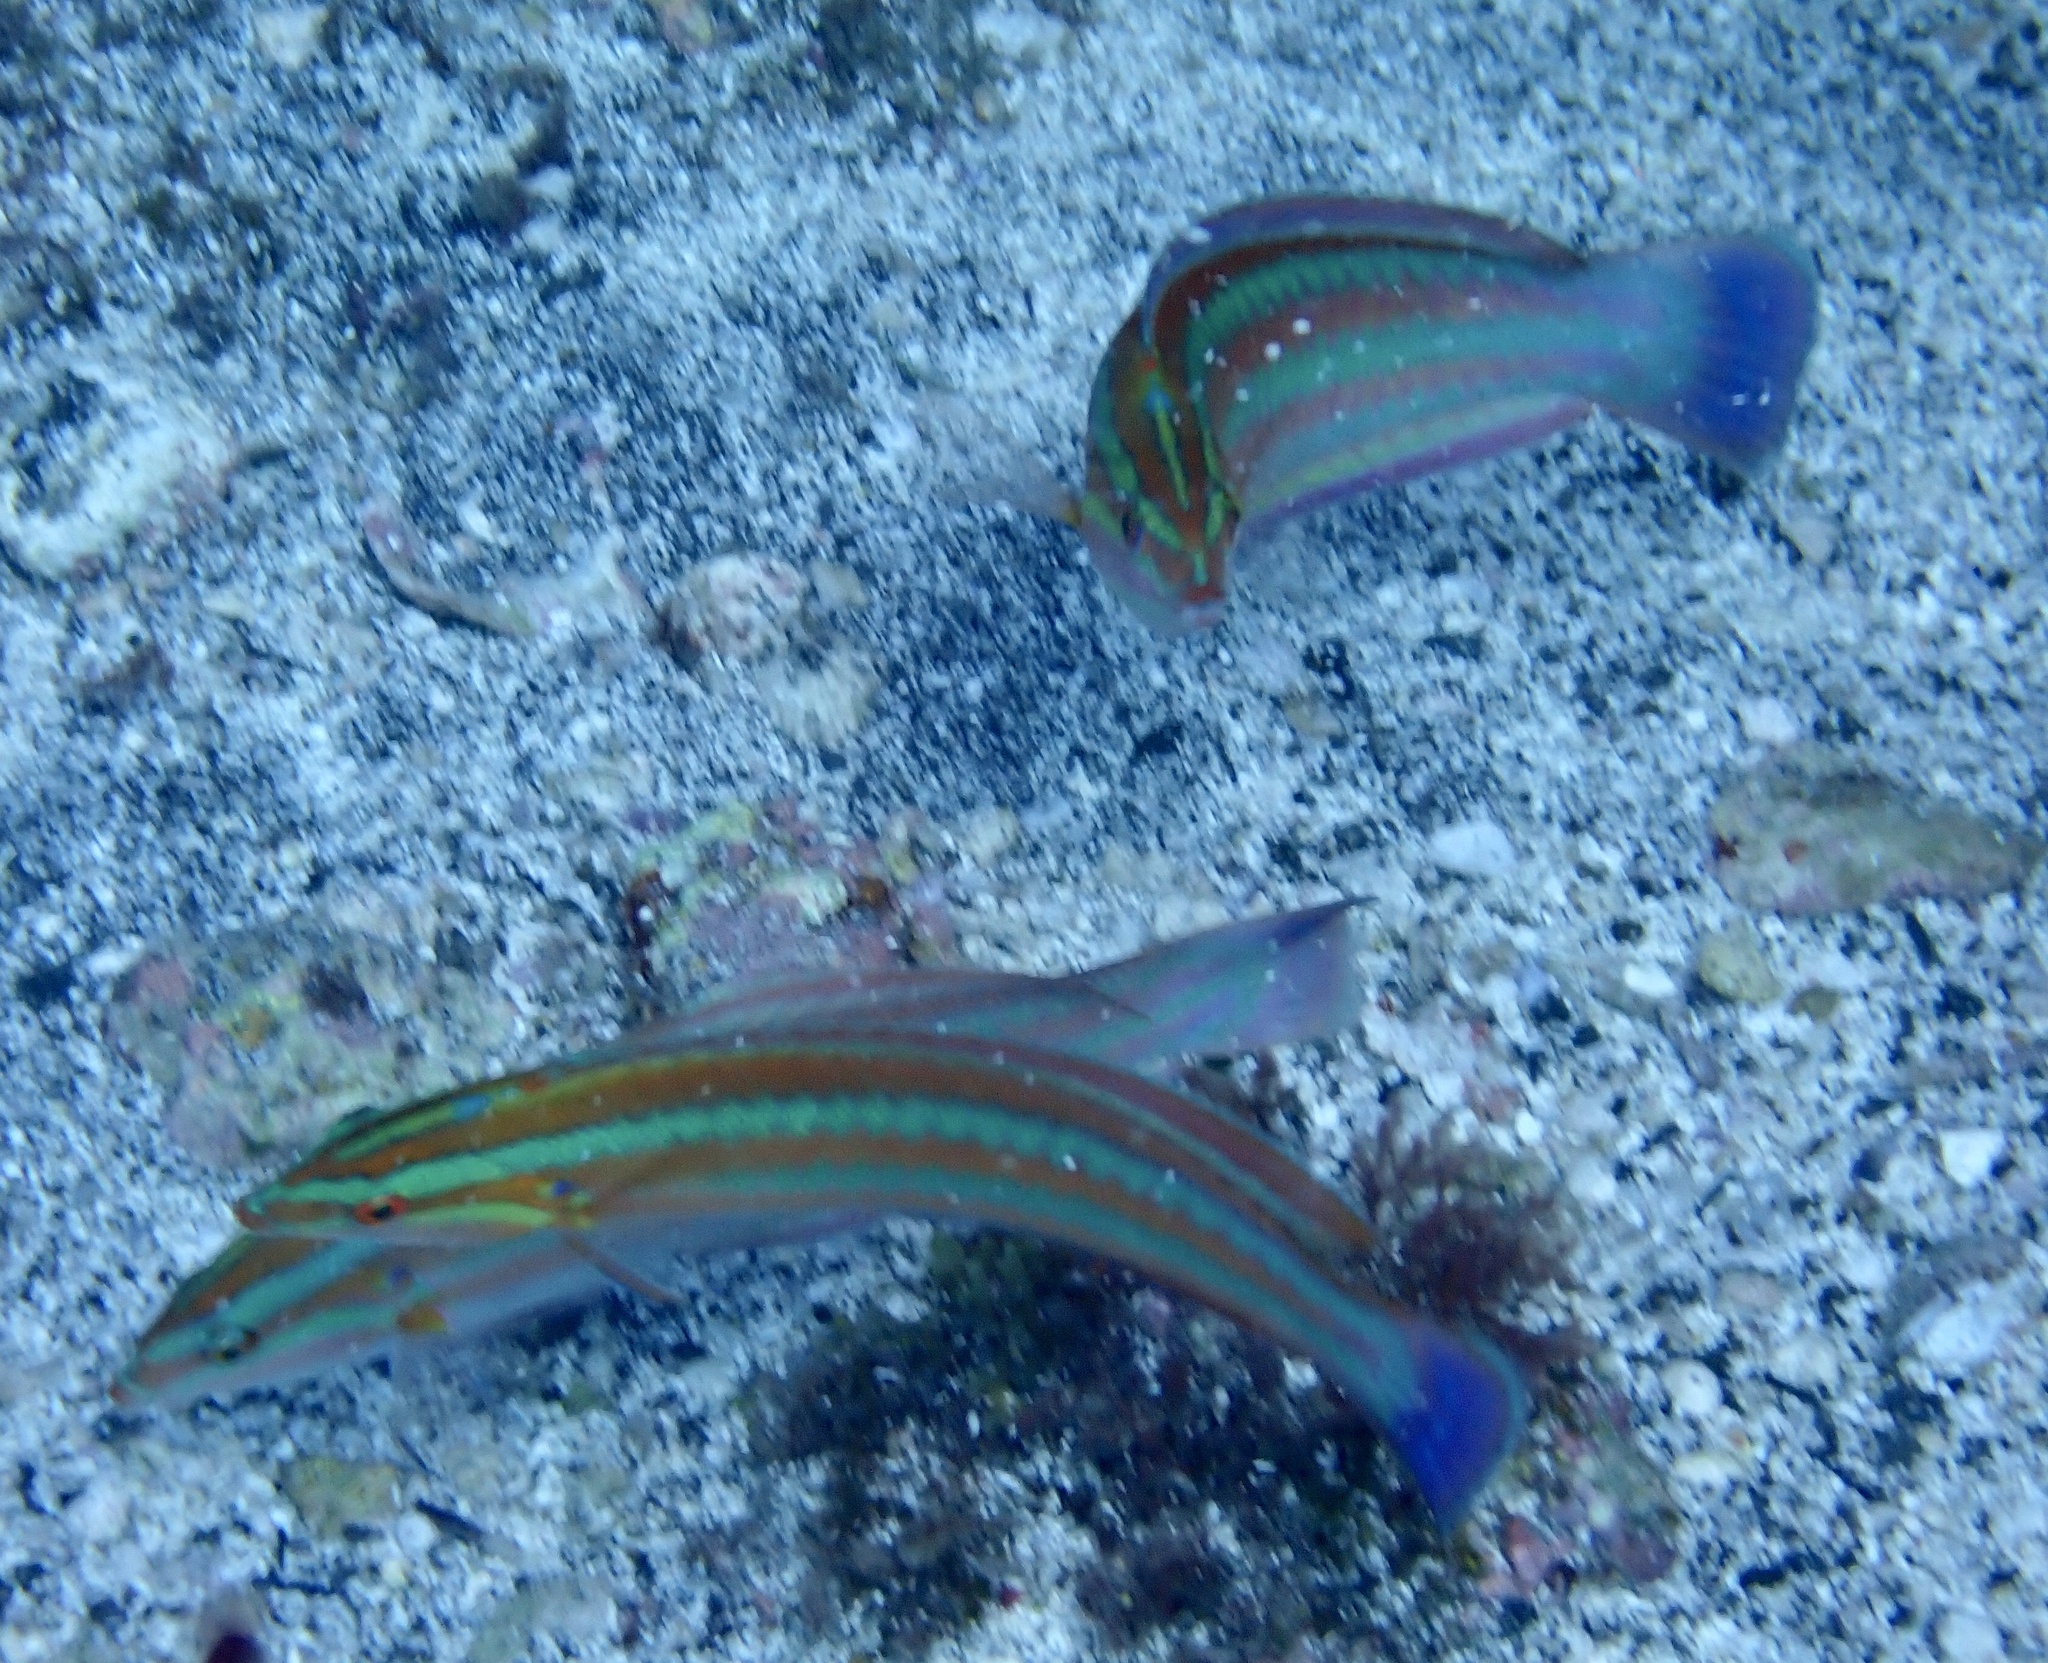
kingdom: Animalia
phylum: Chordata
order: Perciformes
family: Labridae
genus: Coris
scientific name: Coris atlantica
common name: Rainbow wrasse
